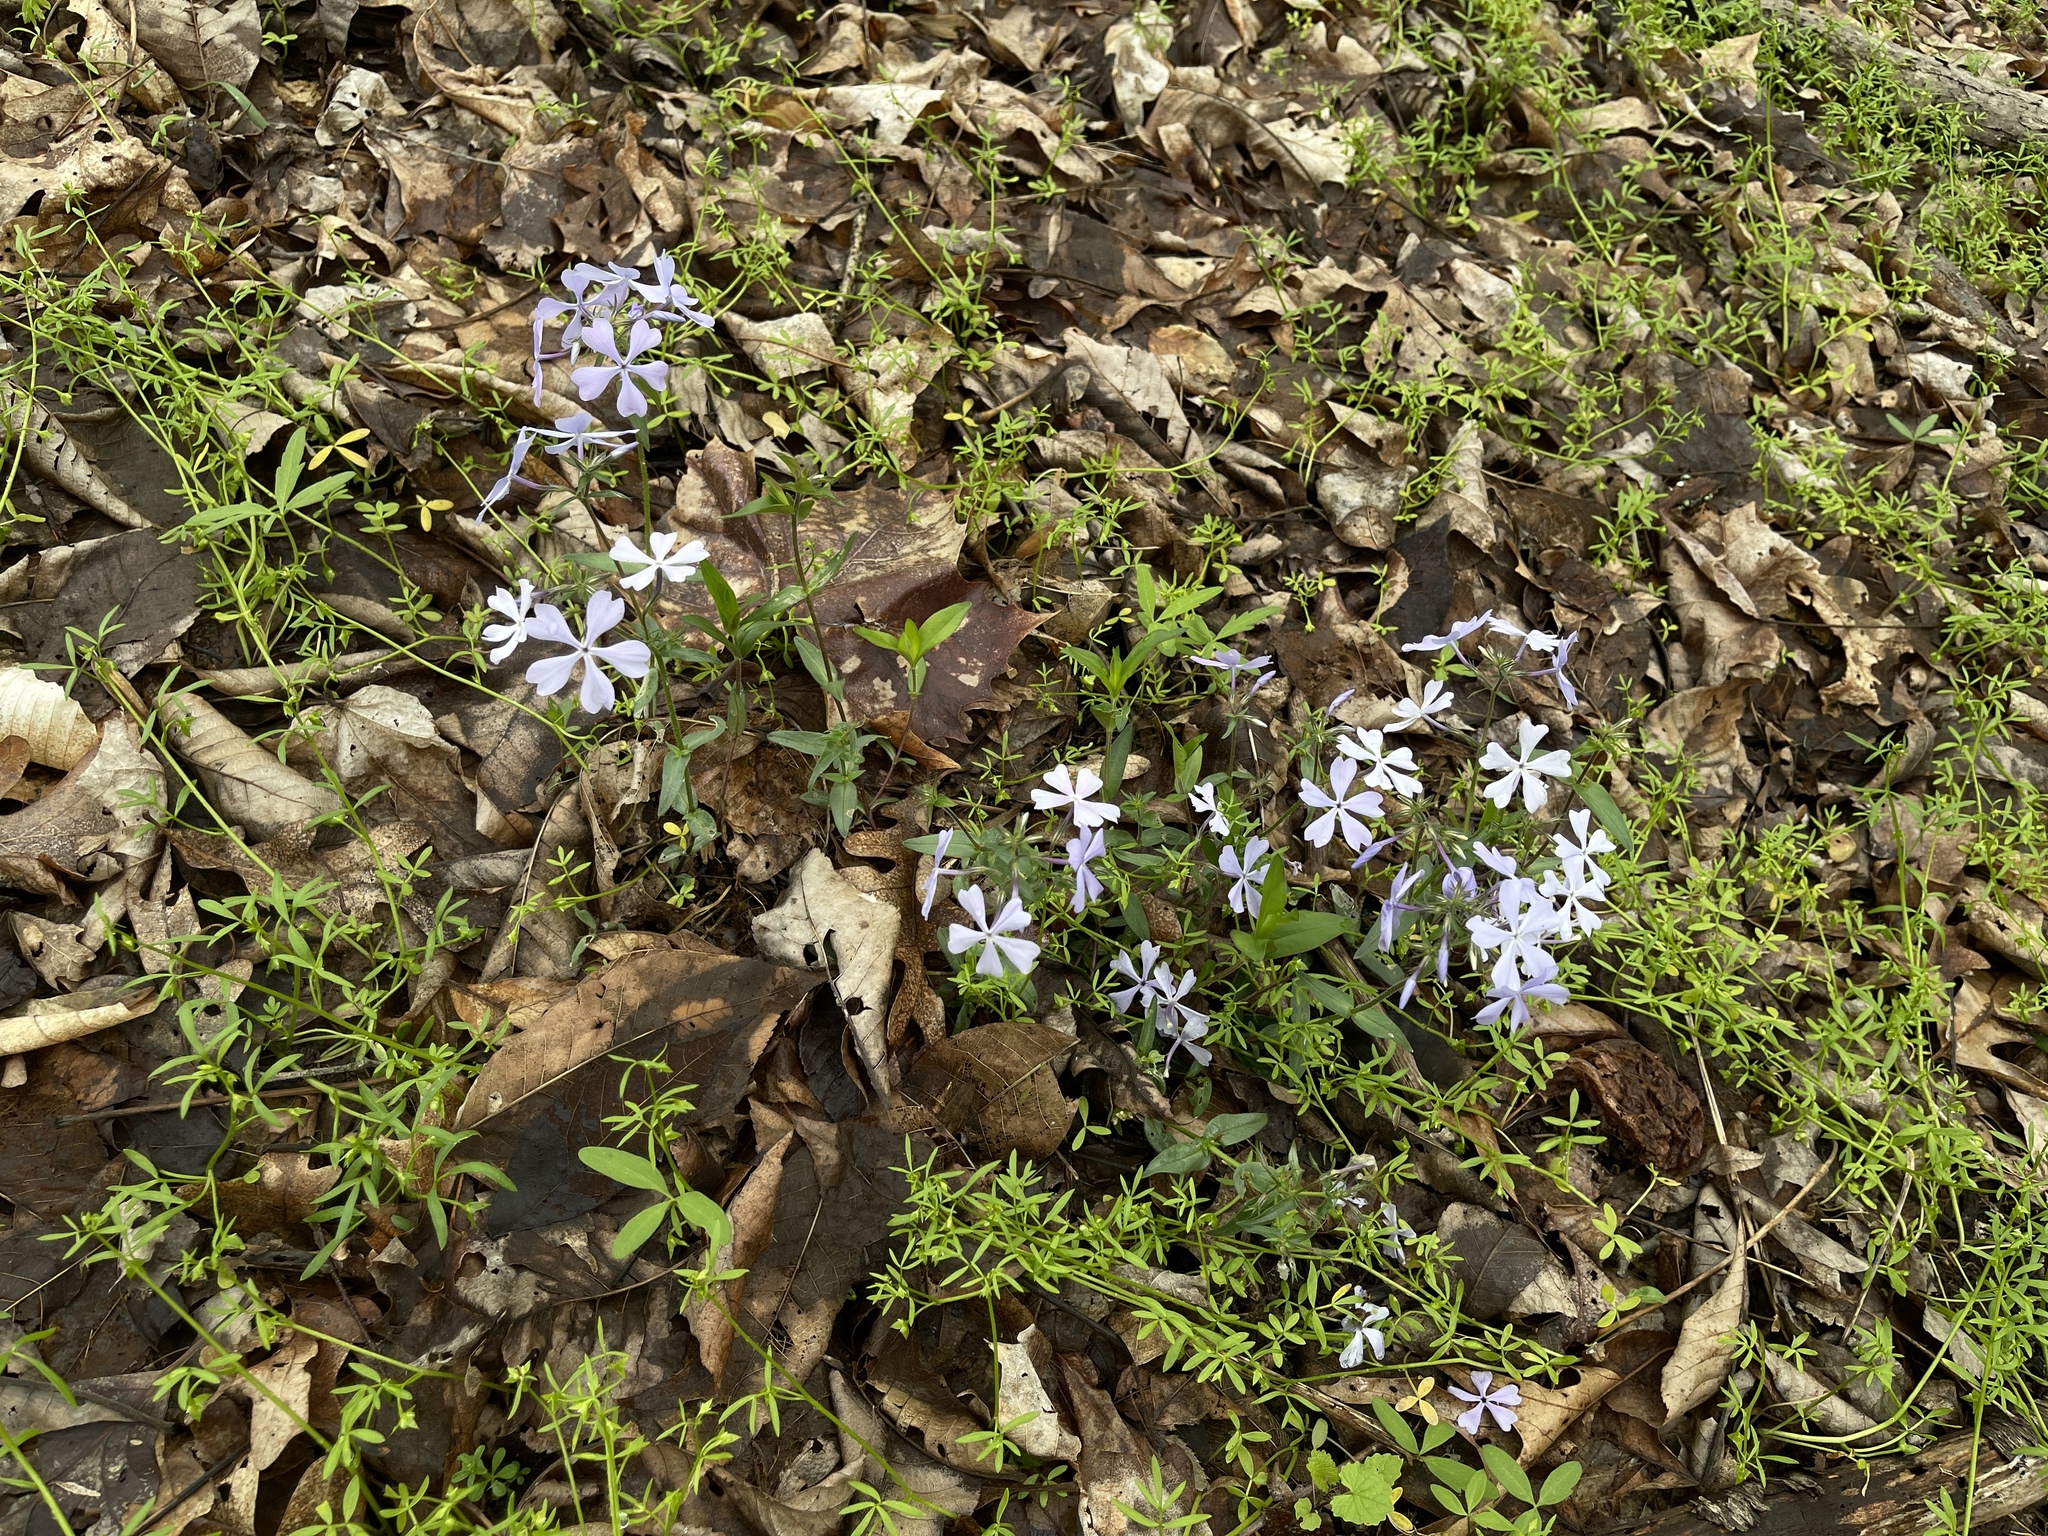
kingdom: Plantae
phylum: Tracheophyta
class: Magnoliopsida
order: Ericales
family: Polemoniaceae
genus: Phlox
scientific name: Phlox divaricata
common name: Blue phlox
